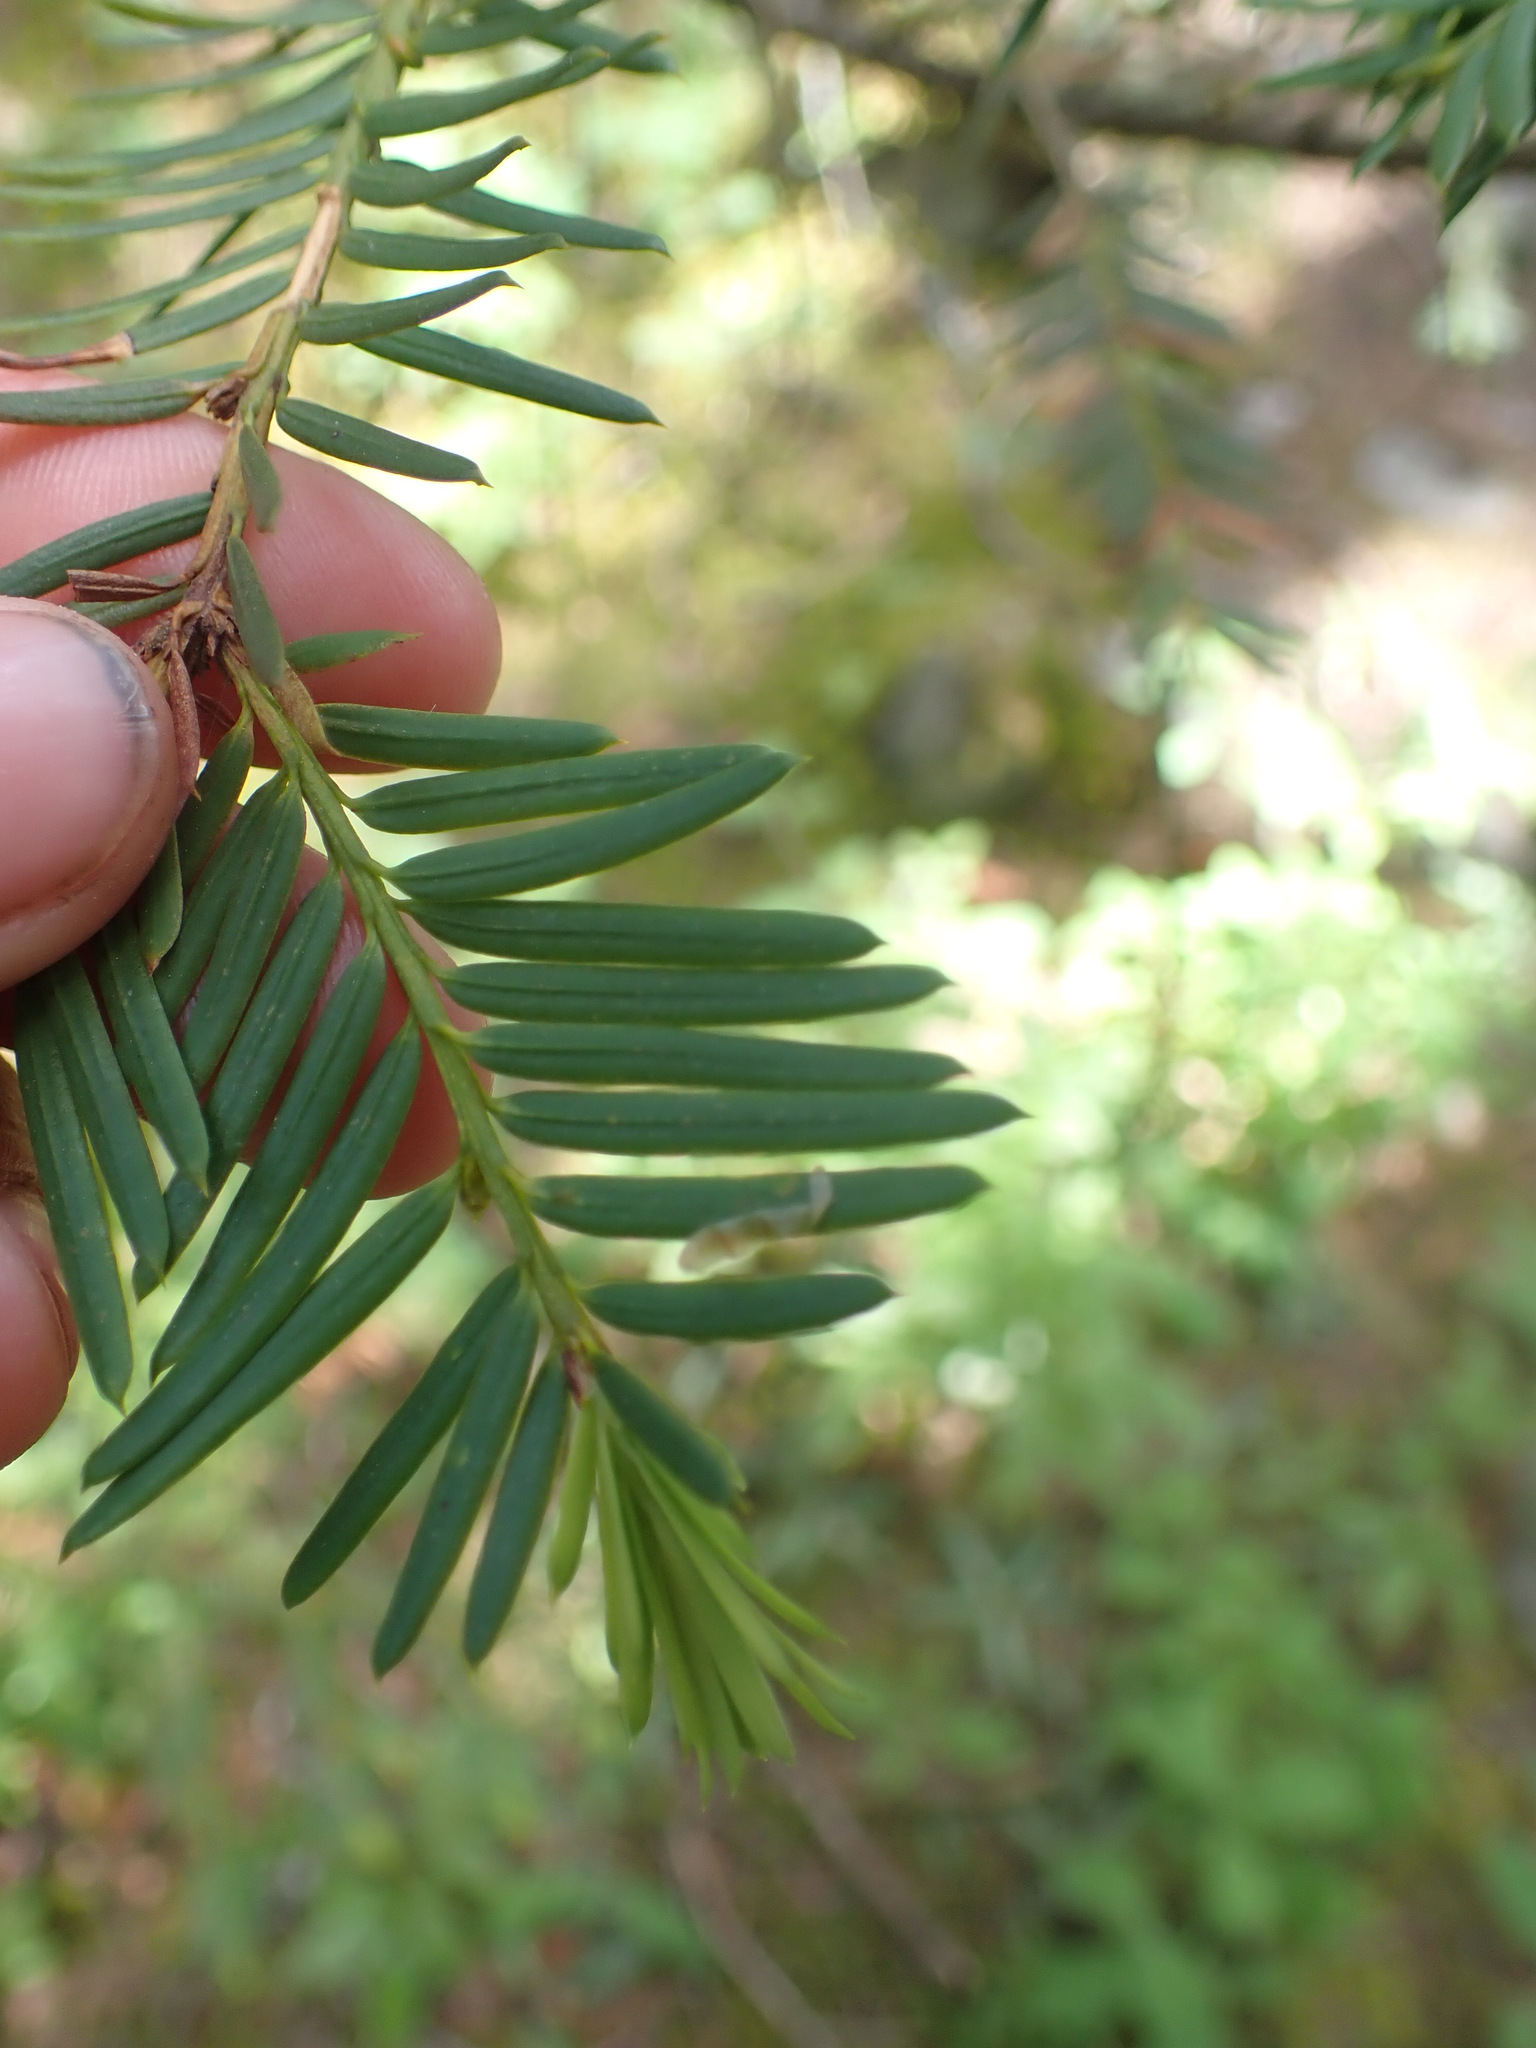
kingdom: Plantae
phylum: Tracheophyta
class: Pinopsida
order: Pinales
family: Taxaceae
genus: Taxus
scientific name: Taxus brevifolia
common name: Pacific yew
